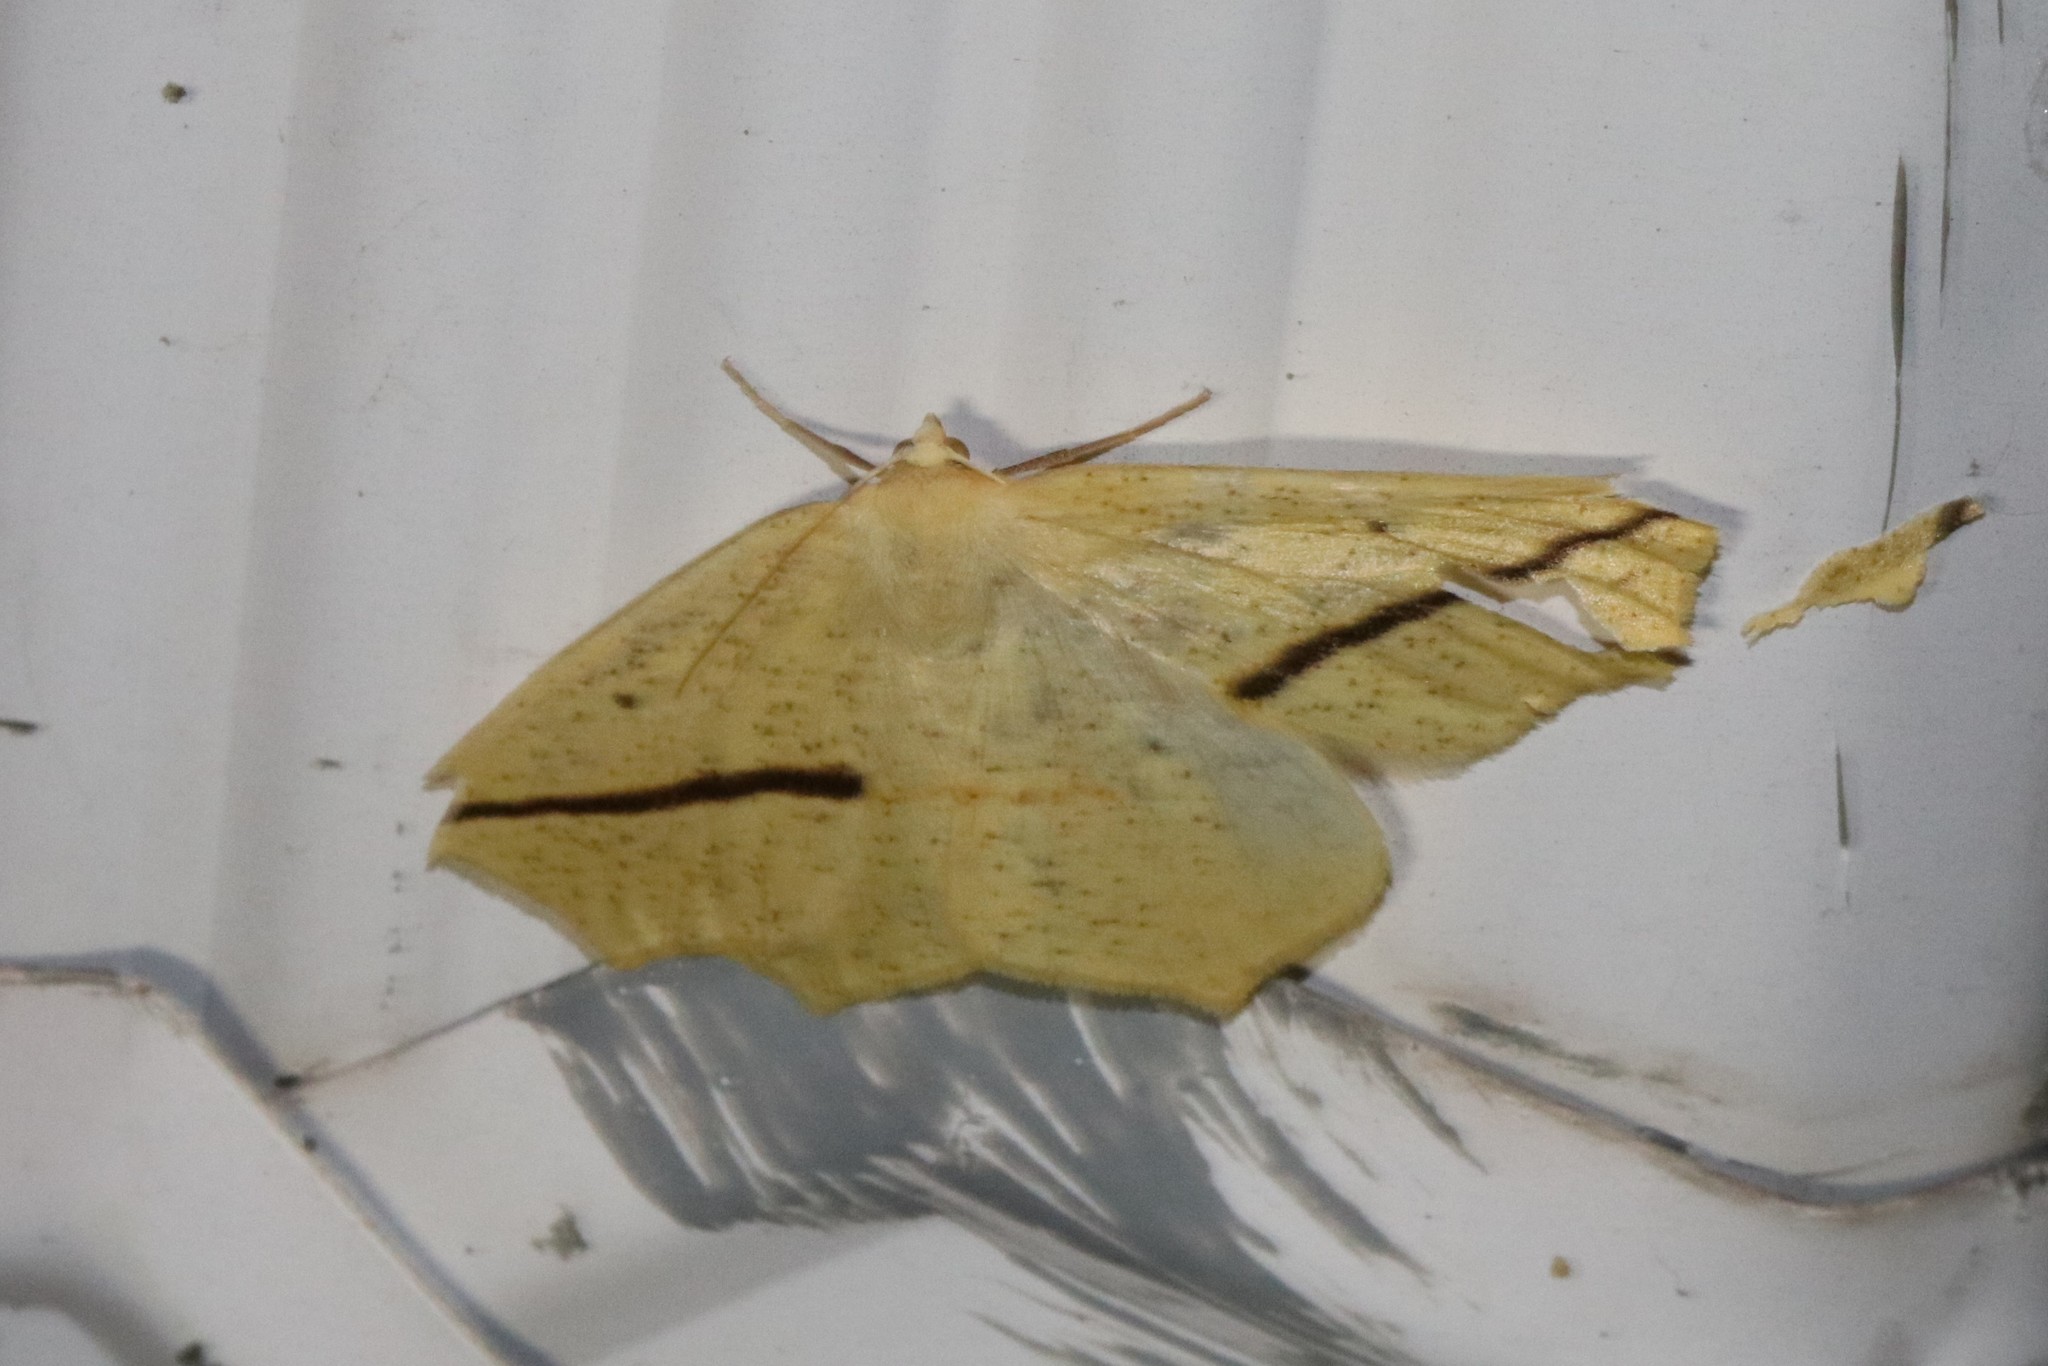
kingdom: Animalia
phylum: Arthropoda
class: Insecta
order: Lepidoptera
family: Geometridae
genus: Tetracis
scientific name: Tetracis crocallata
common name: Yellow slant-line
